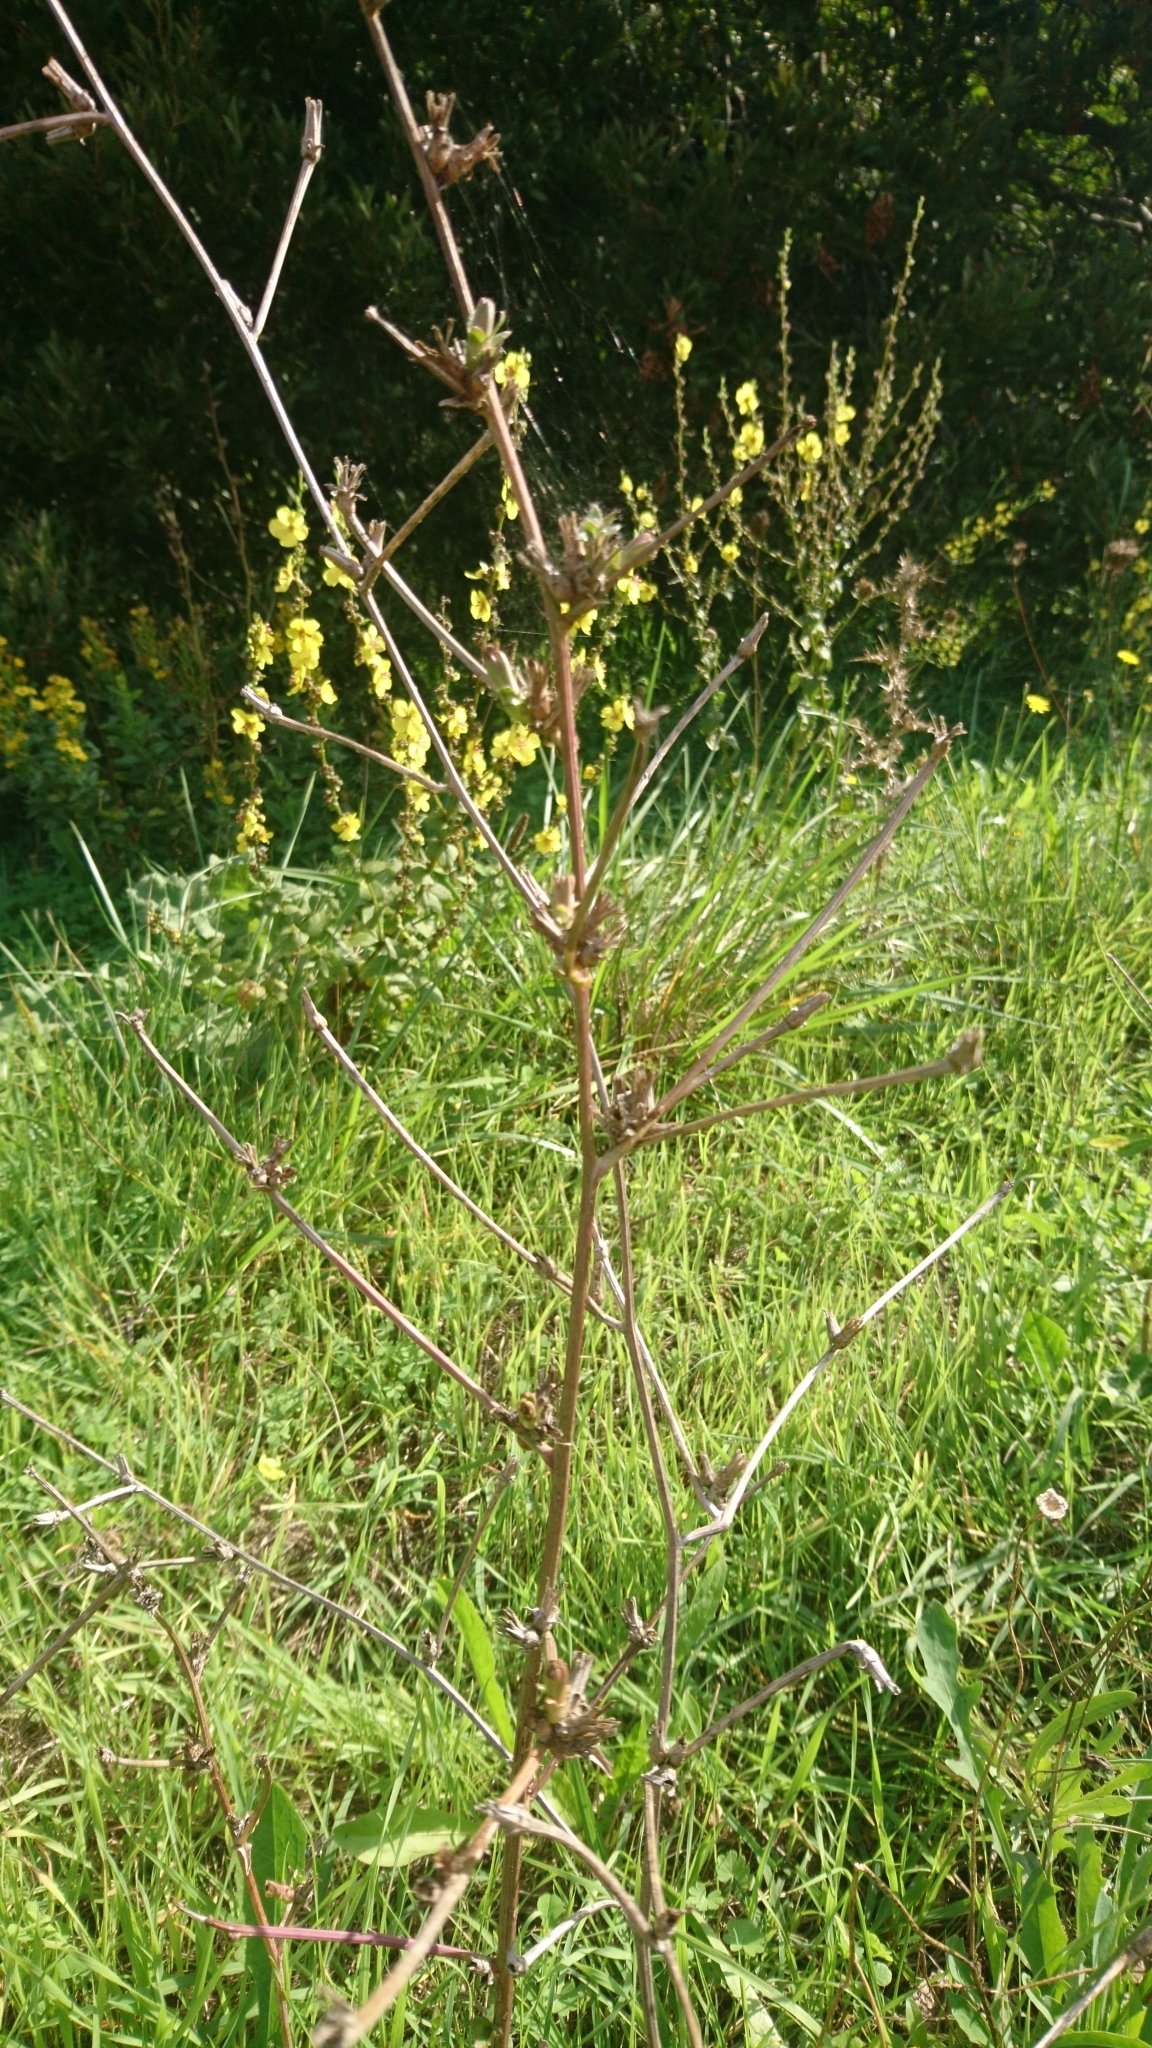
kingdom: Plantae
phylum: Tracheophyta
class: Magnoliopsida
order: Asterales
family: Asteraceae
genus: Cichorium
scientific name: Cichorium intybus
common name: Chicory
